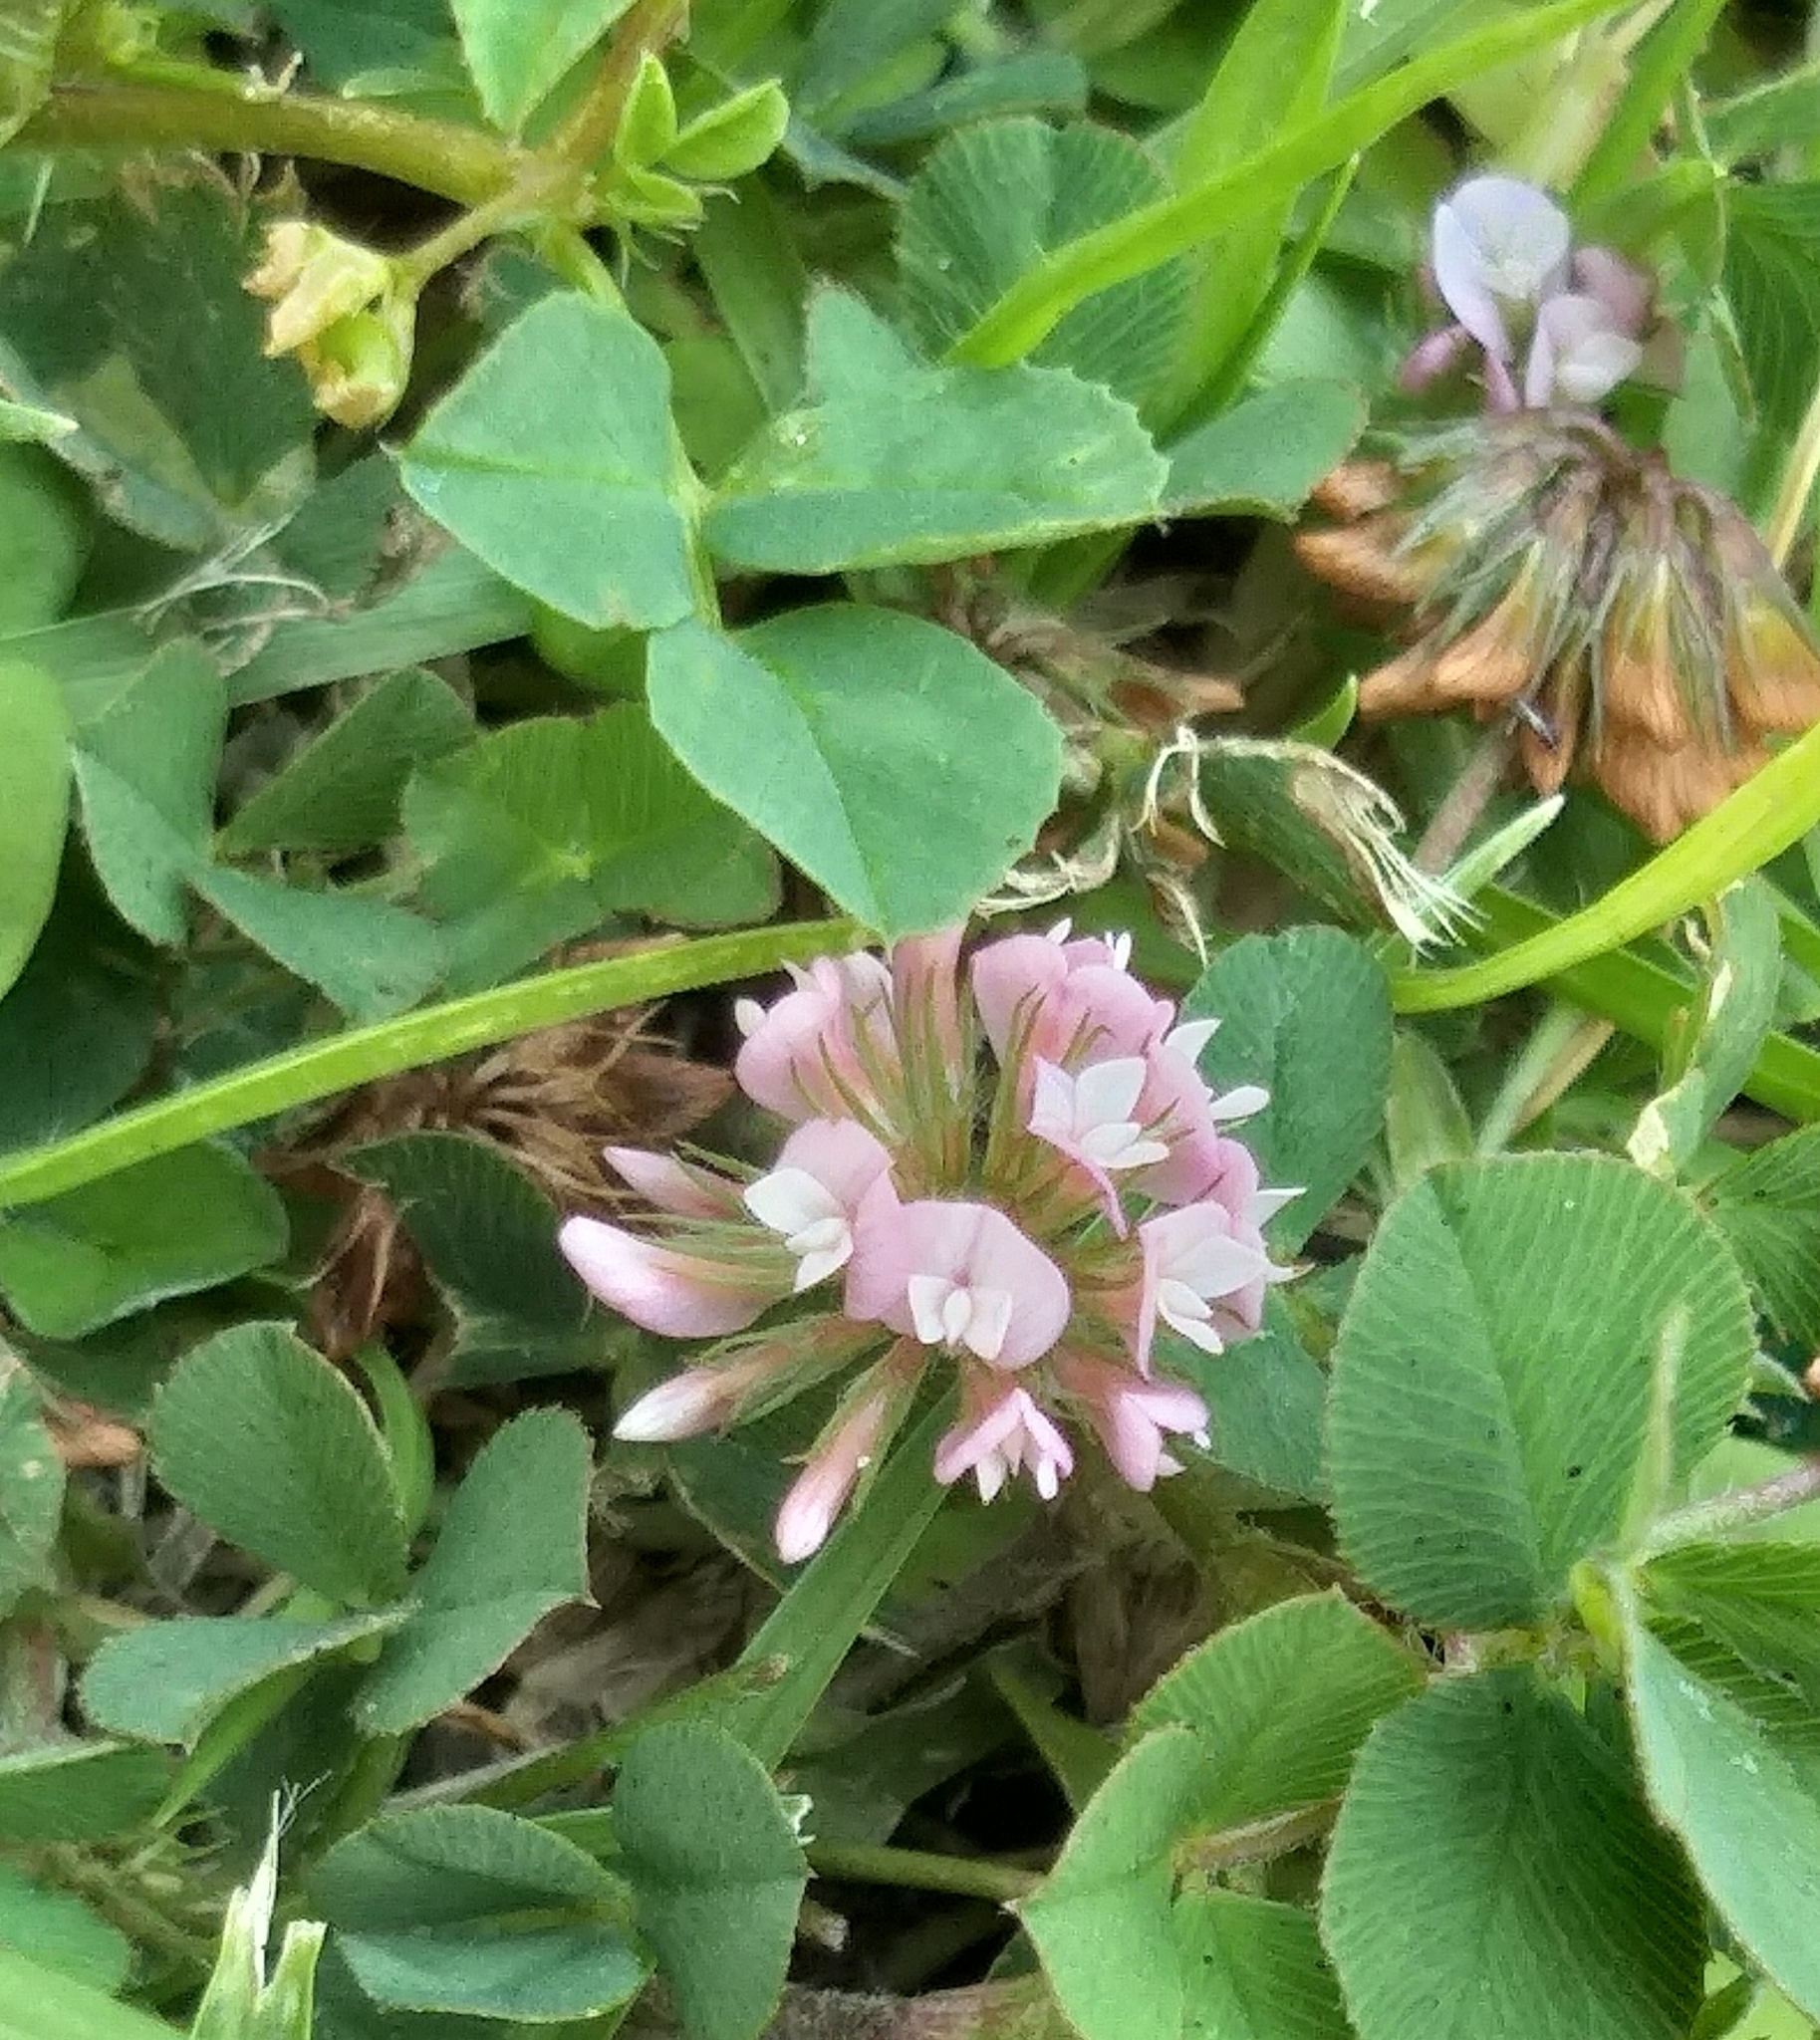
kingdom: Plantae
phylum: Tracheophyta
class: Magnoliopsida
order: Fabales
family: Fabaceae
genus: Trifolium
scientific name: Trifolium repens
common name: White clover
